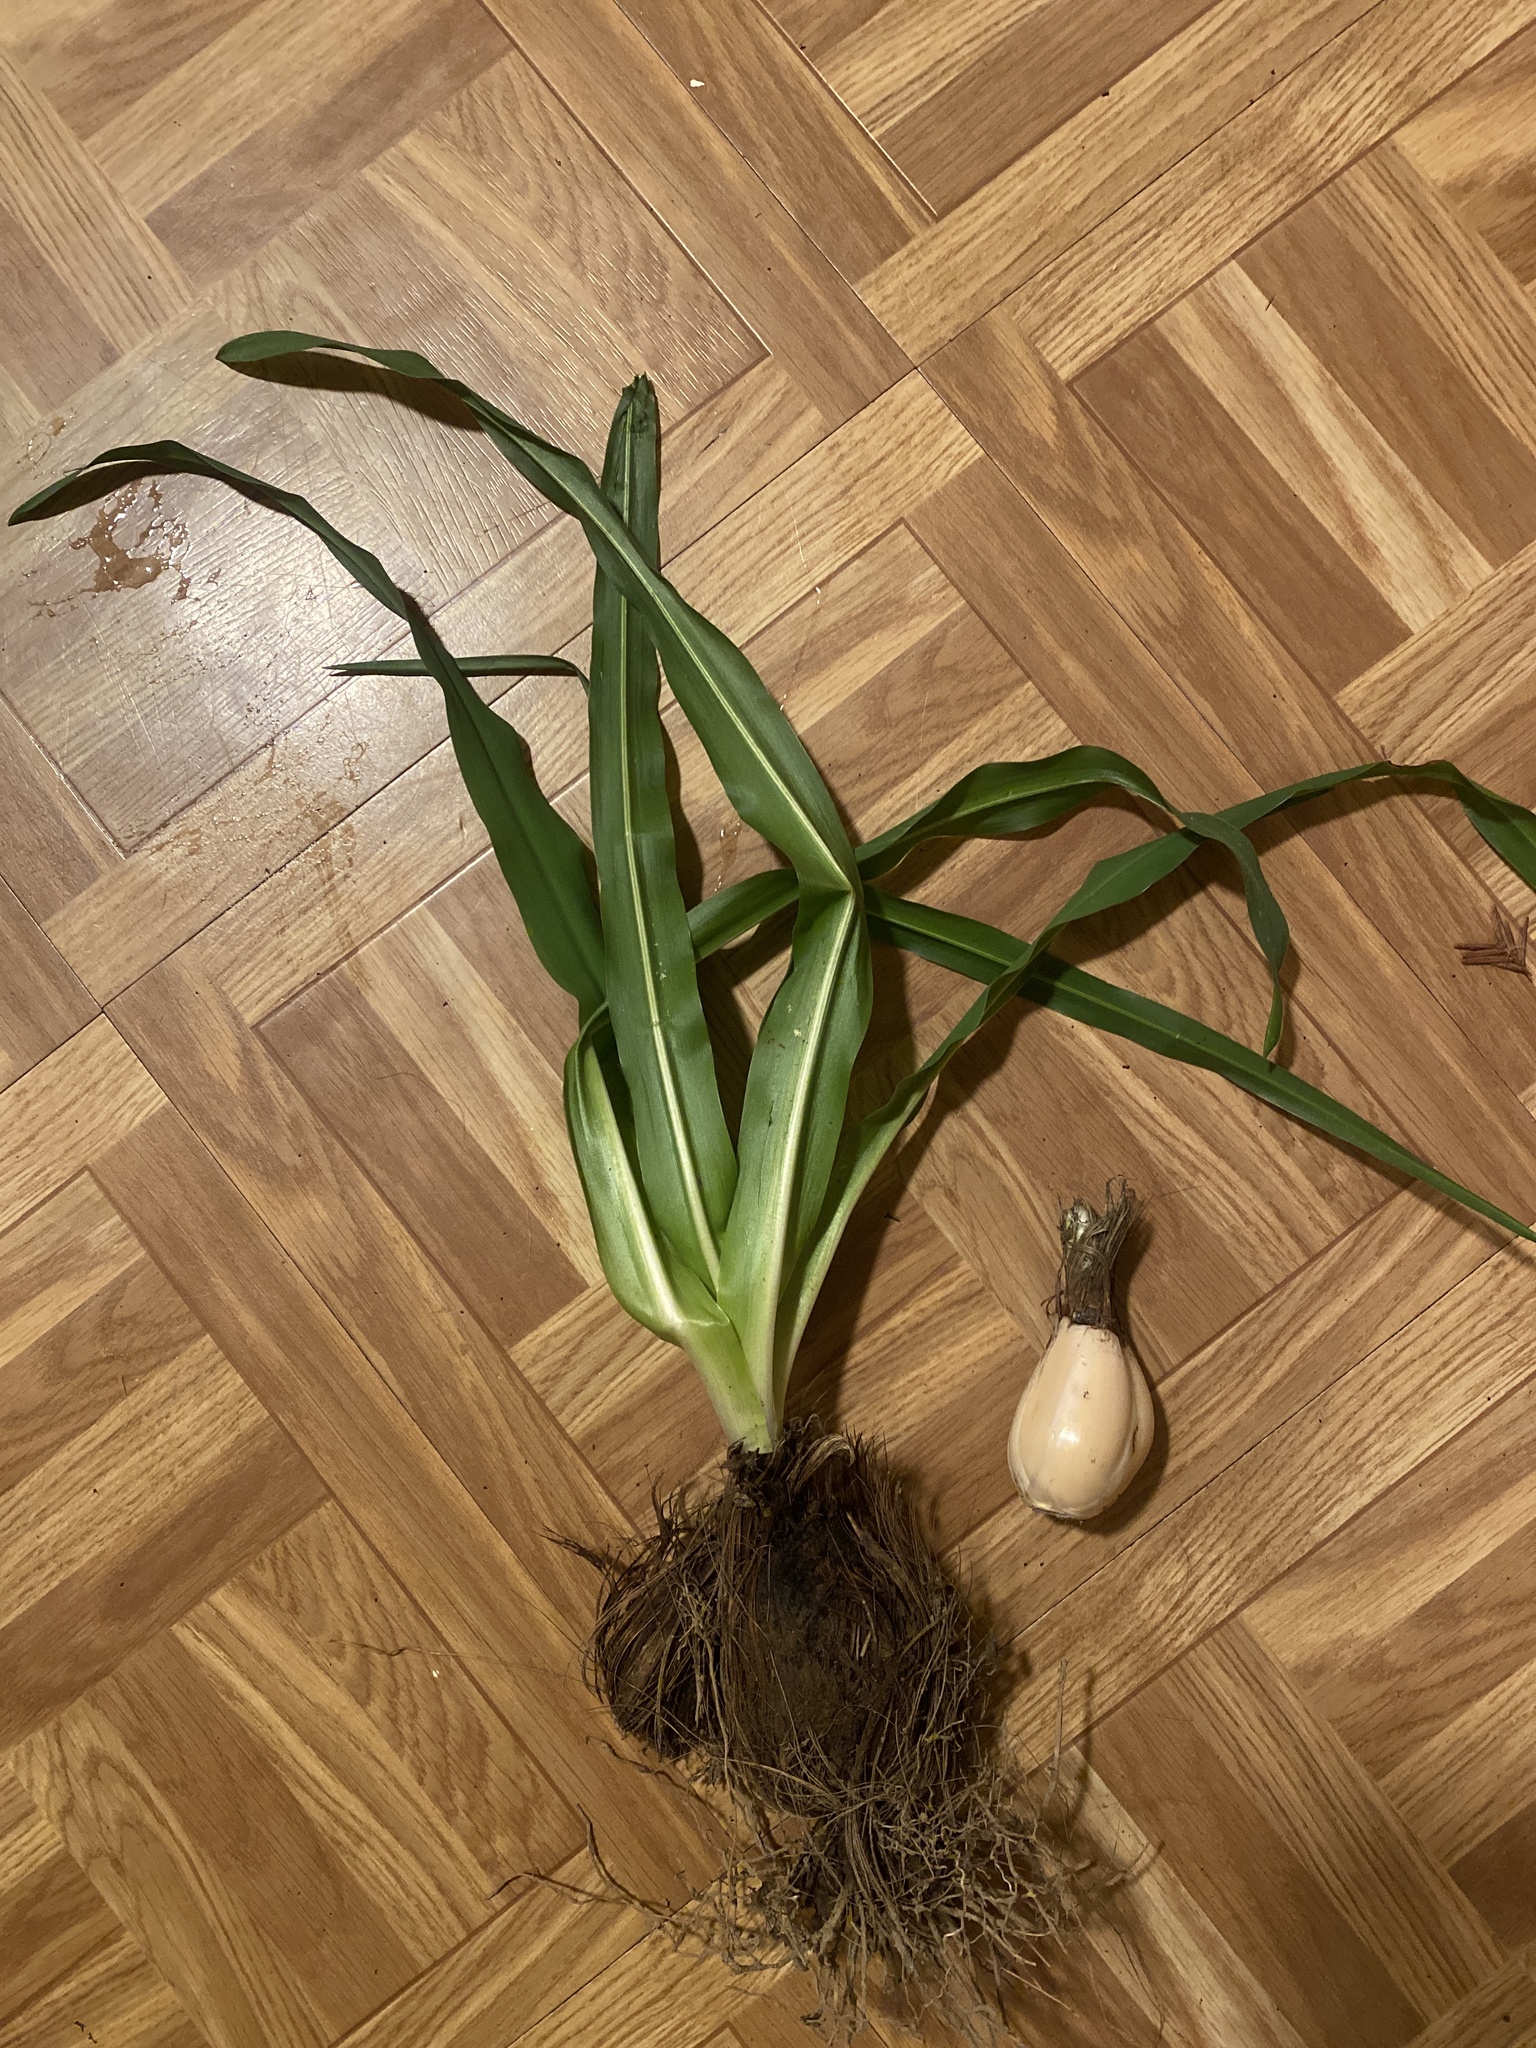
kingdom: Plantae
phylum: Tracheophyta
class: Liliopsida
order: Asparagales
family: Asparagaceae
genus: Chlorogalum
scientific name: Chlorogalum pomeridianum
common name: Amole
